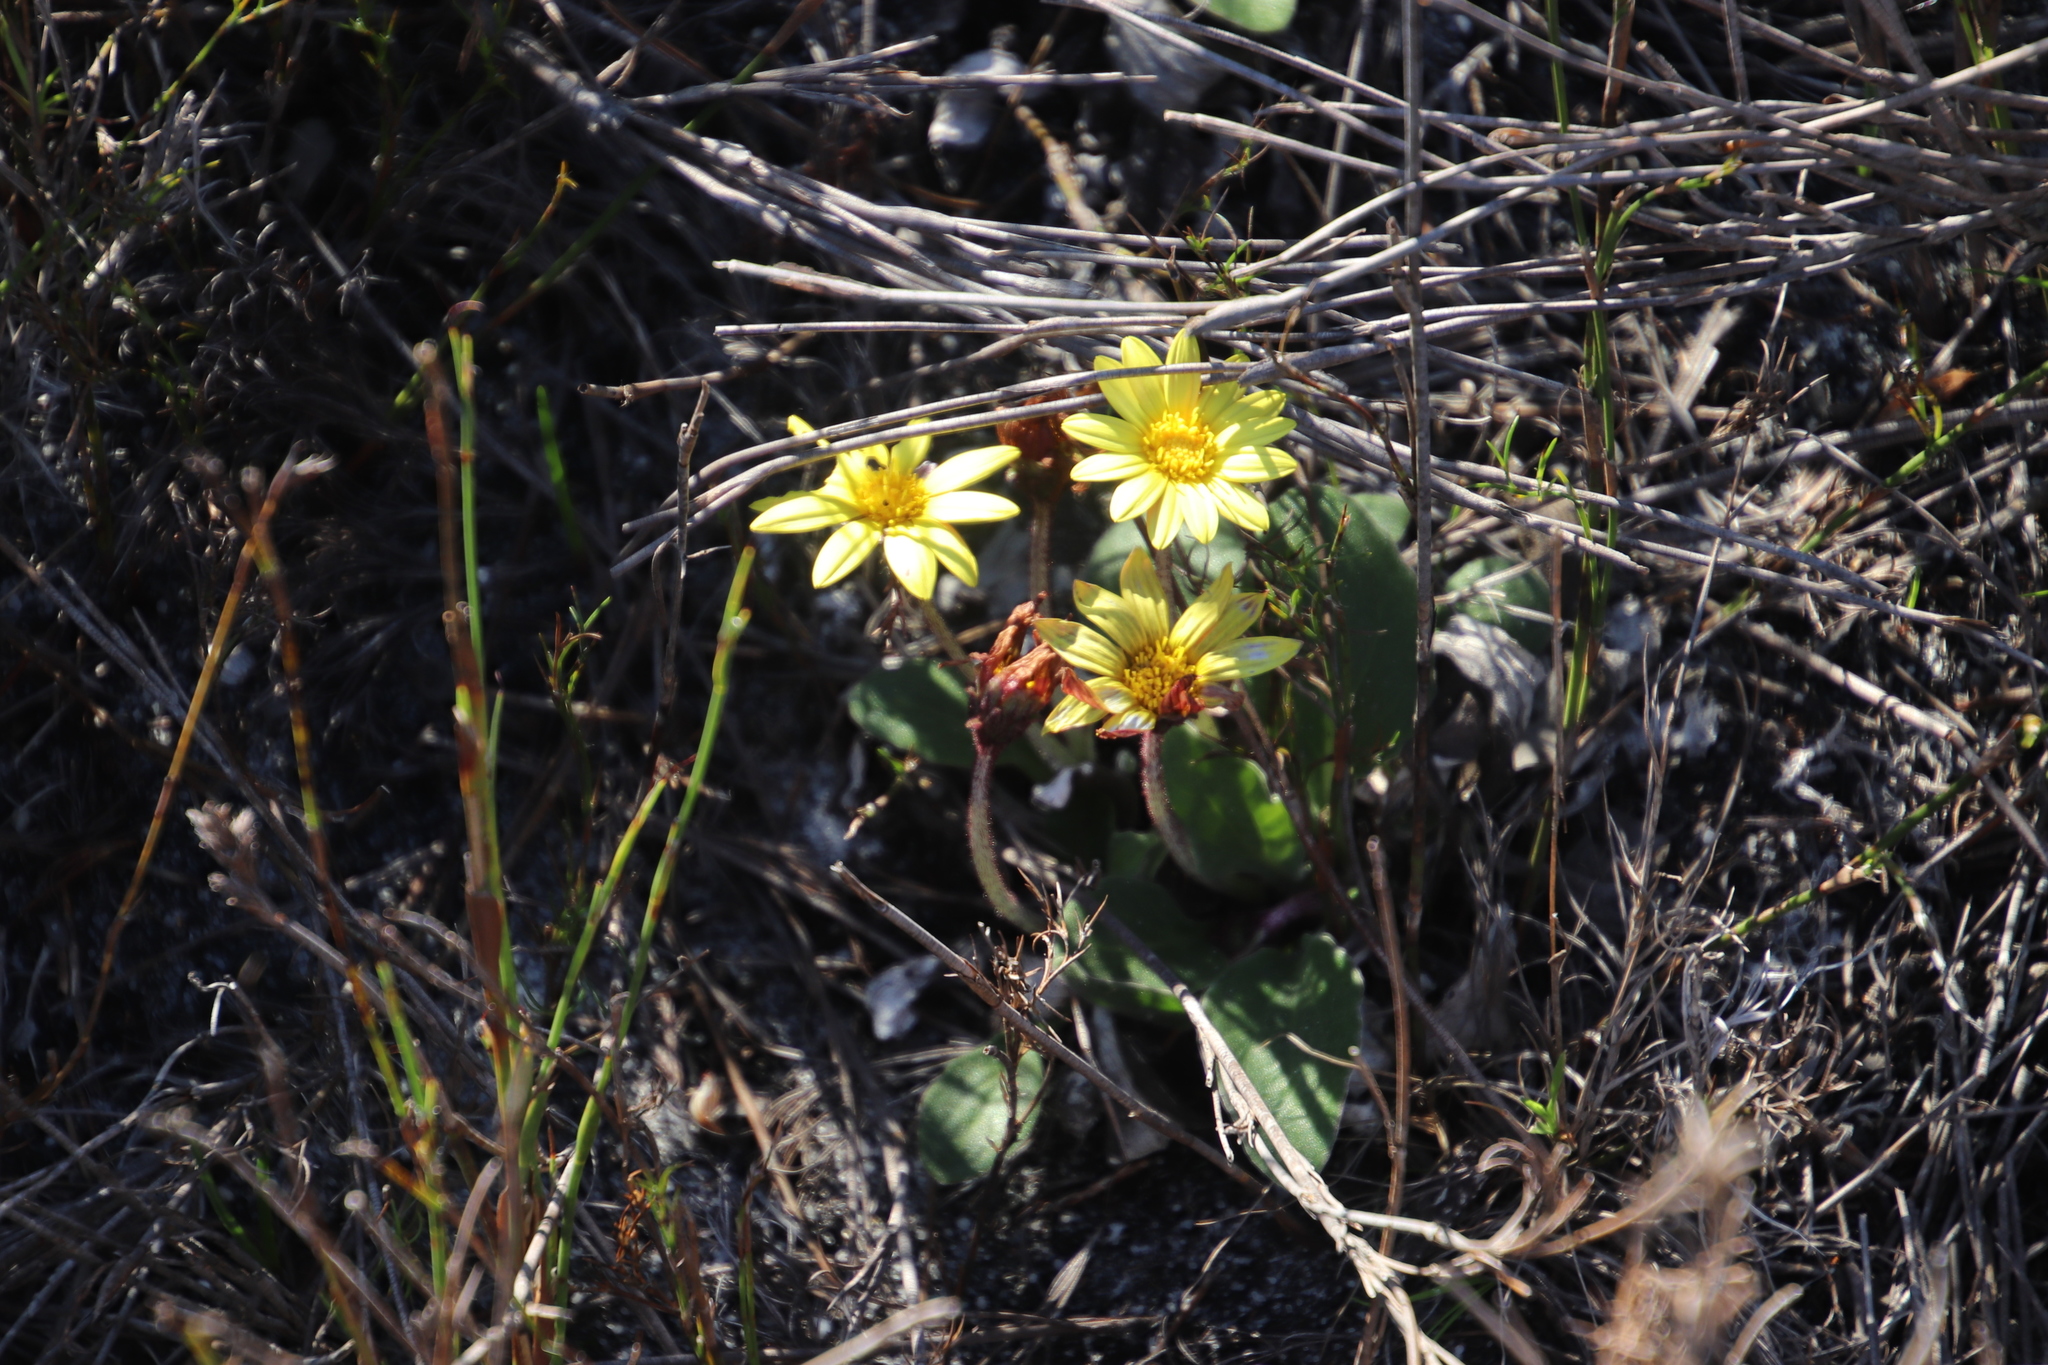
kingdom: Plantae
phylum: Tracheophyta
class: Magnoliopsida
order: Asterales
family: Asteraceae
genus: Haplocarpha
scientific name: Haplocarpha lanata
